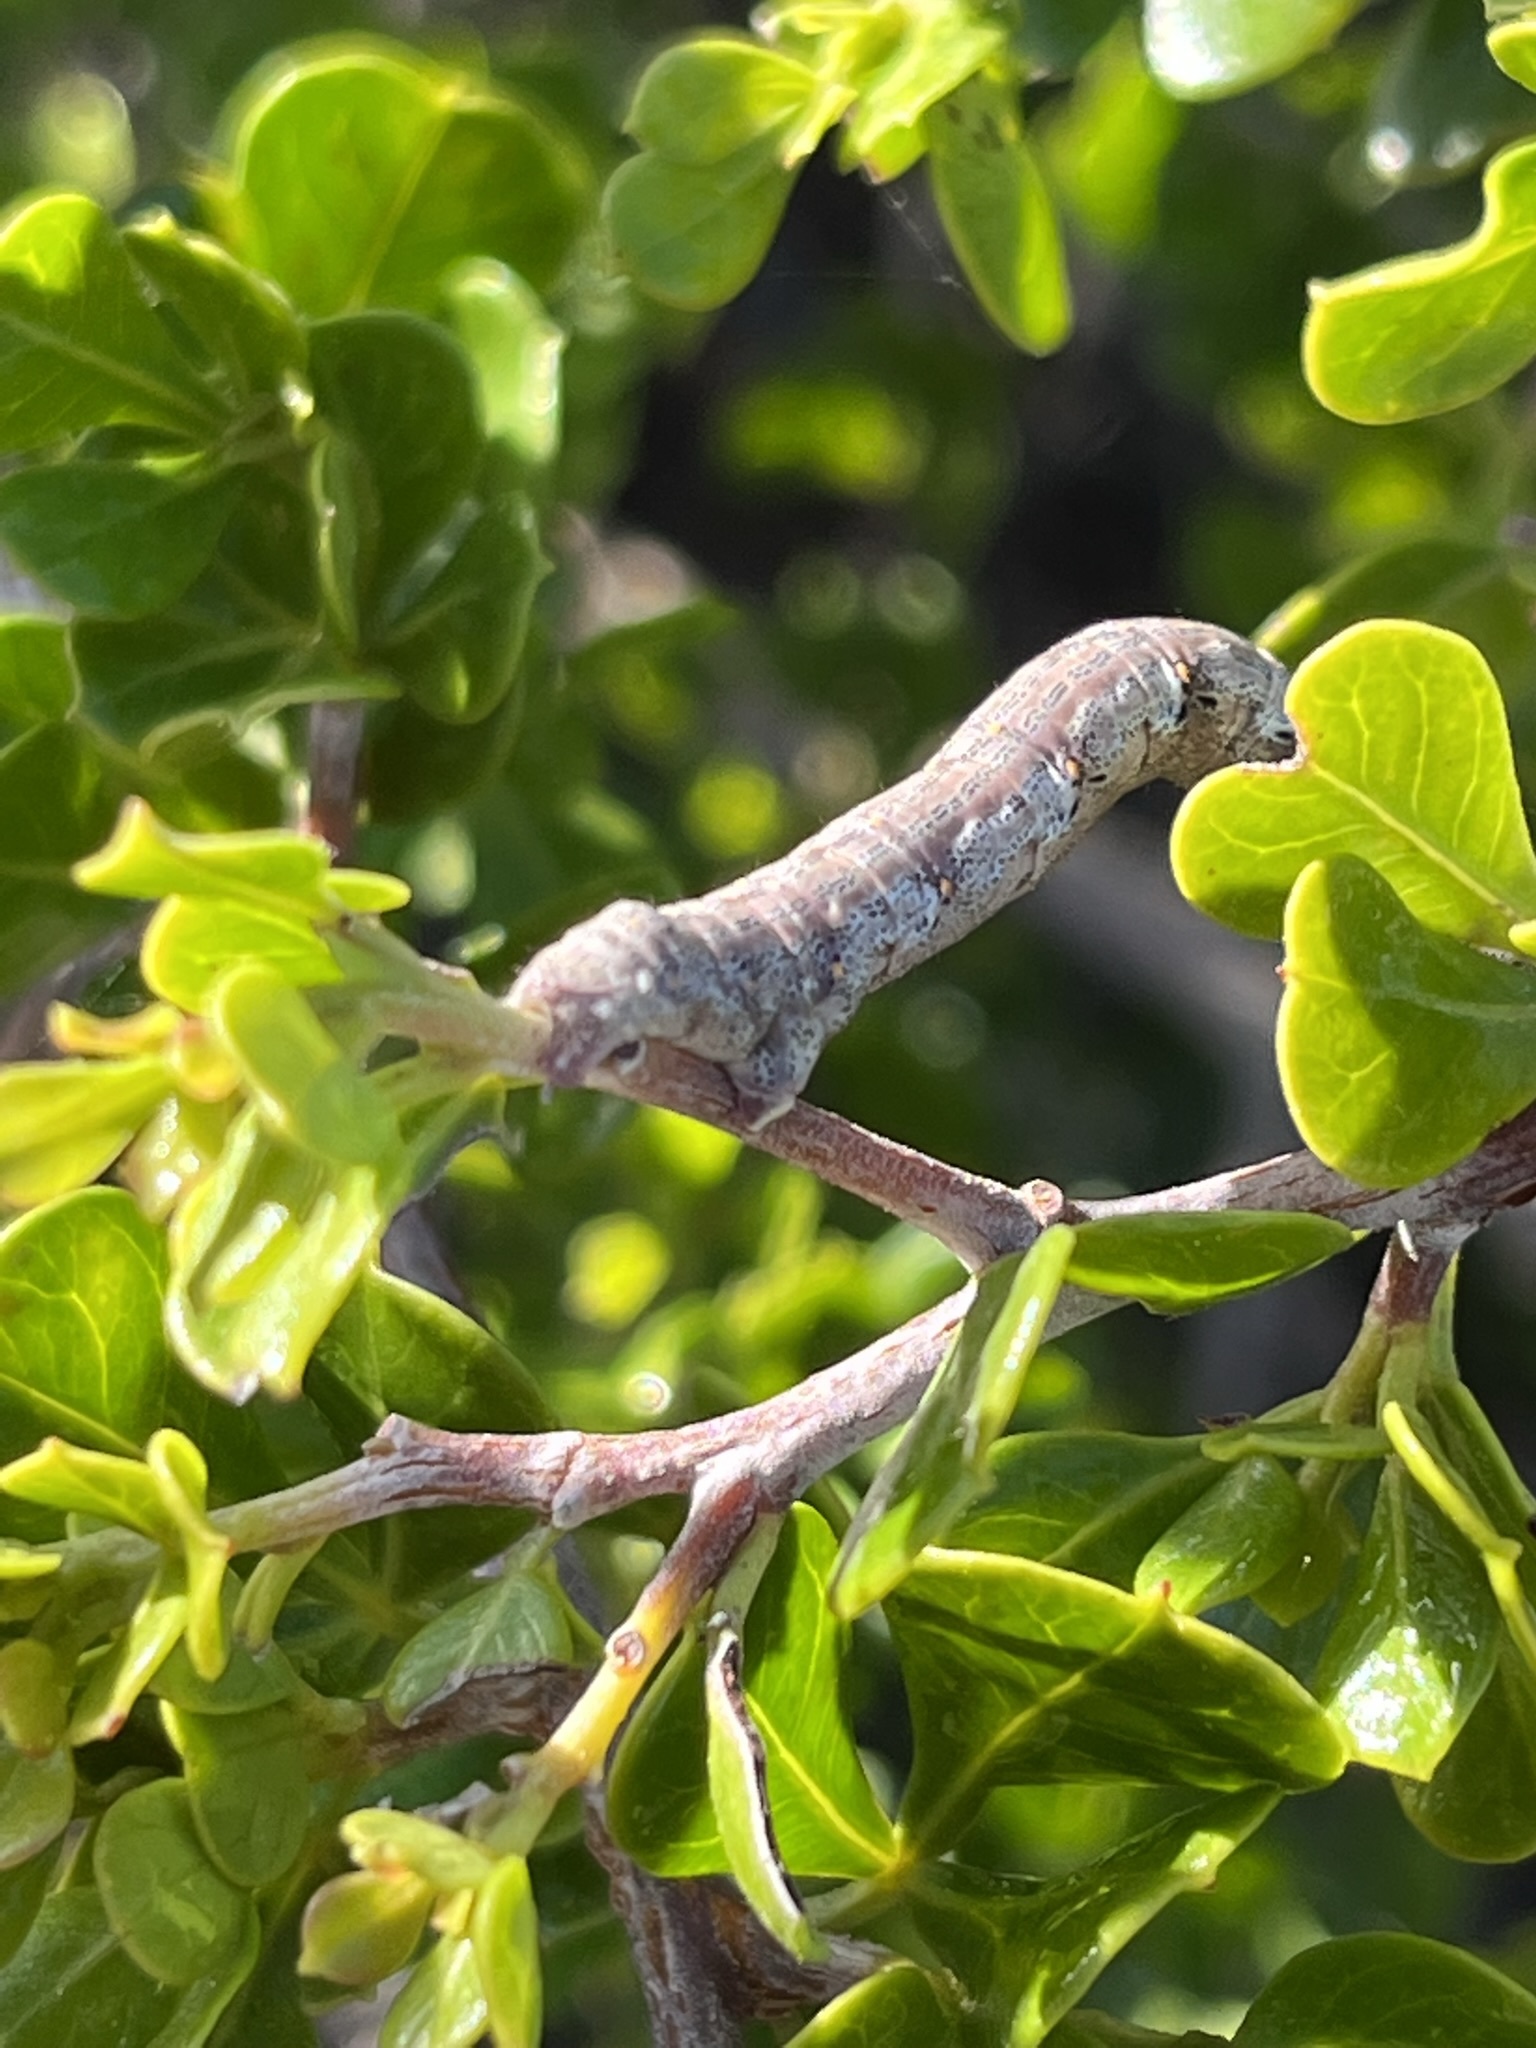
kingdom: Plantae
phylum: Tracheophyta
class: Magnoliopsida
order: Sapindales
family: Anacardiaceae
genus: Searsia
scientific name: Searsia glauca
